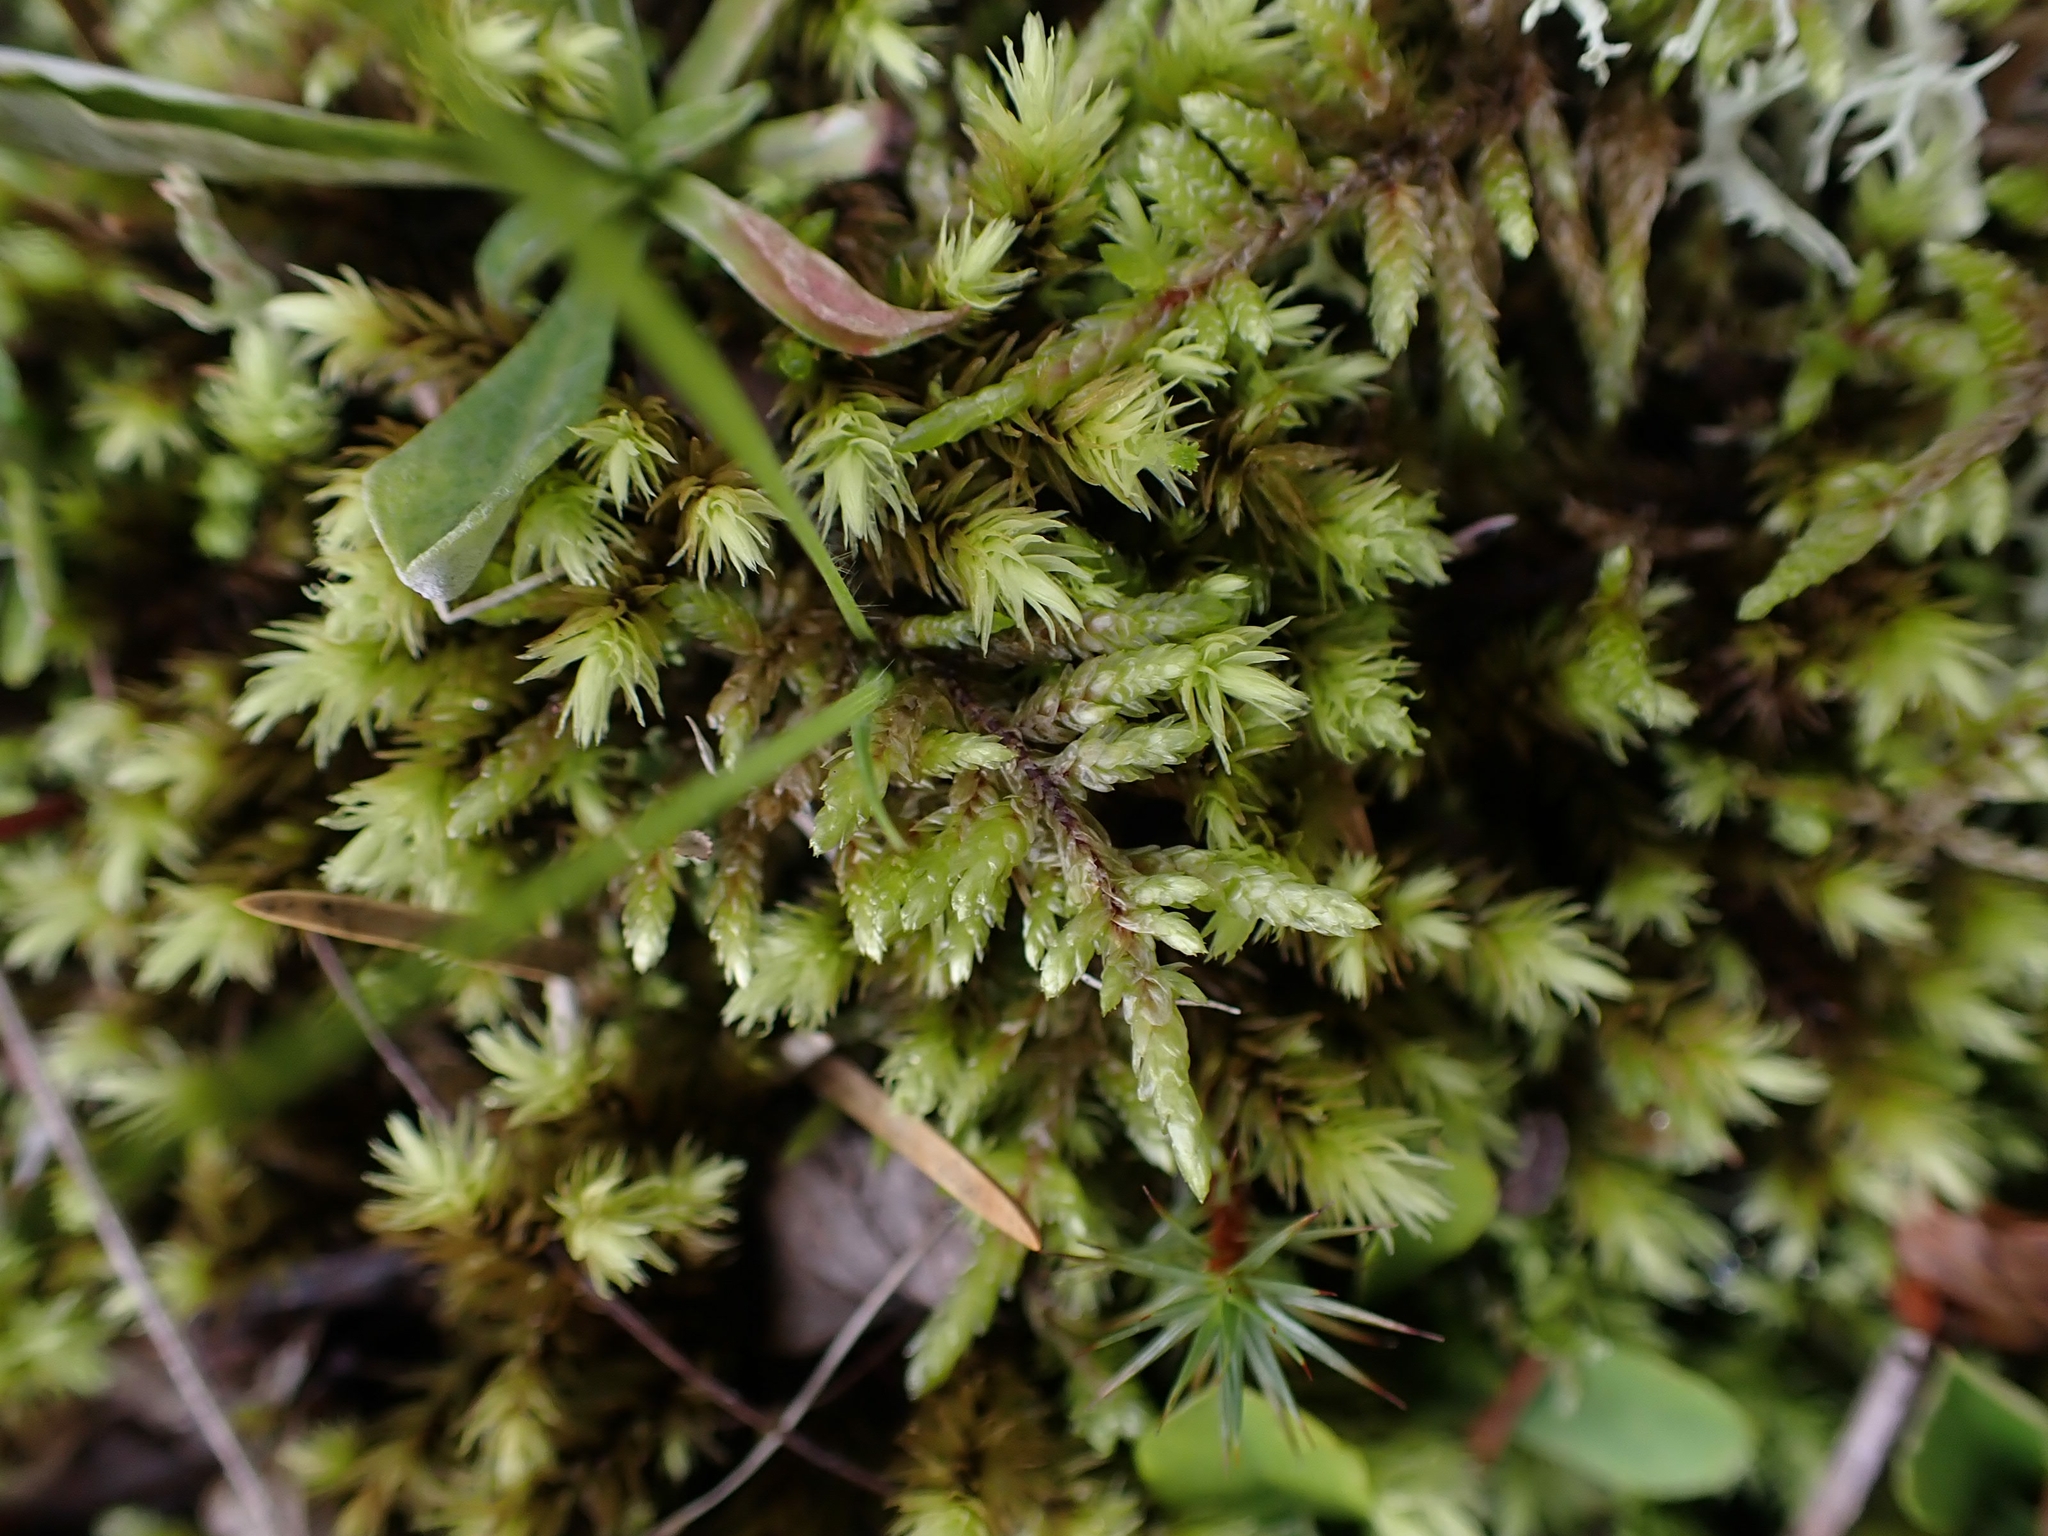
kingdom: Plantae
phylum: Bryophyta
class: Bryopsida
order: Aulacomniales
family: Aulacomniaceae
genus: Aulacomnium
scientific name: Aulacomnium palustre
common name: Bog groove-moss
